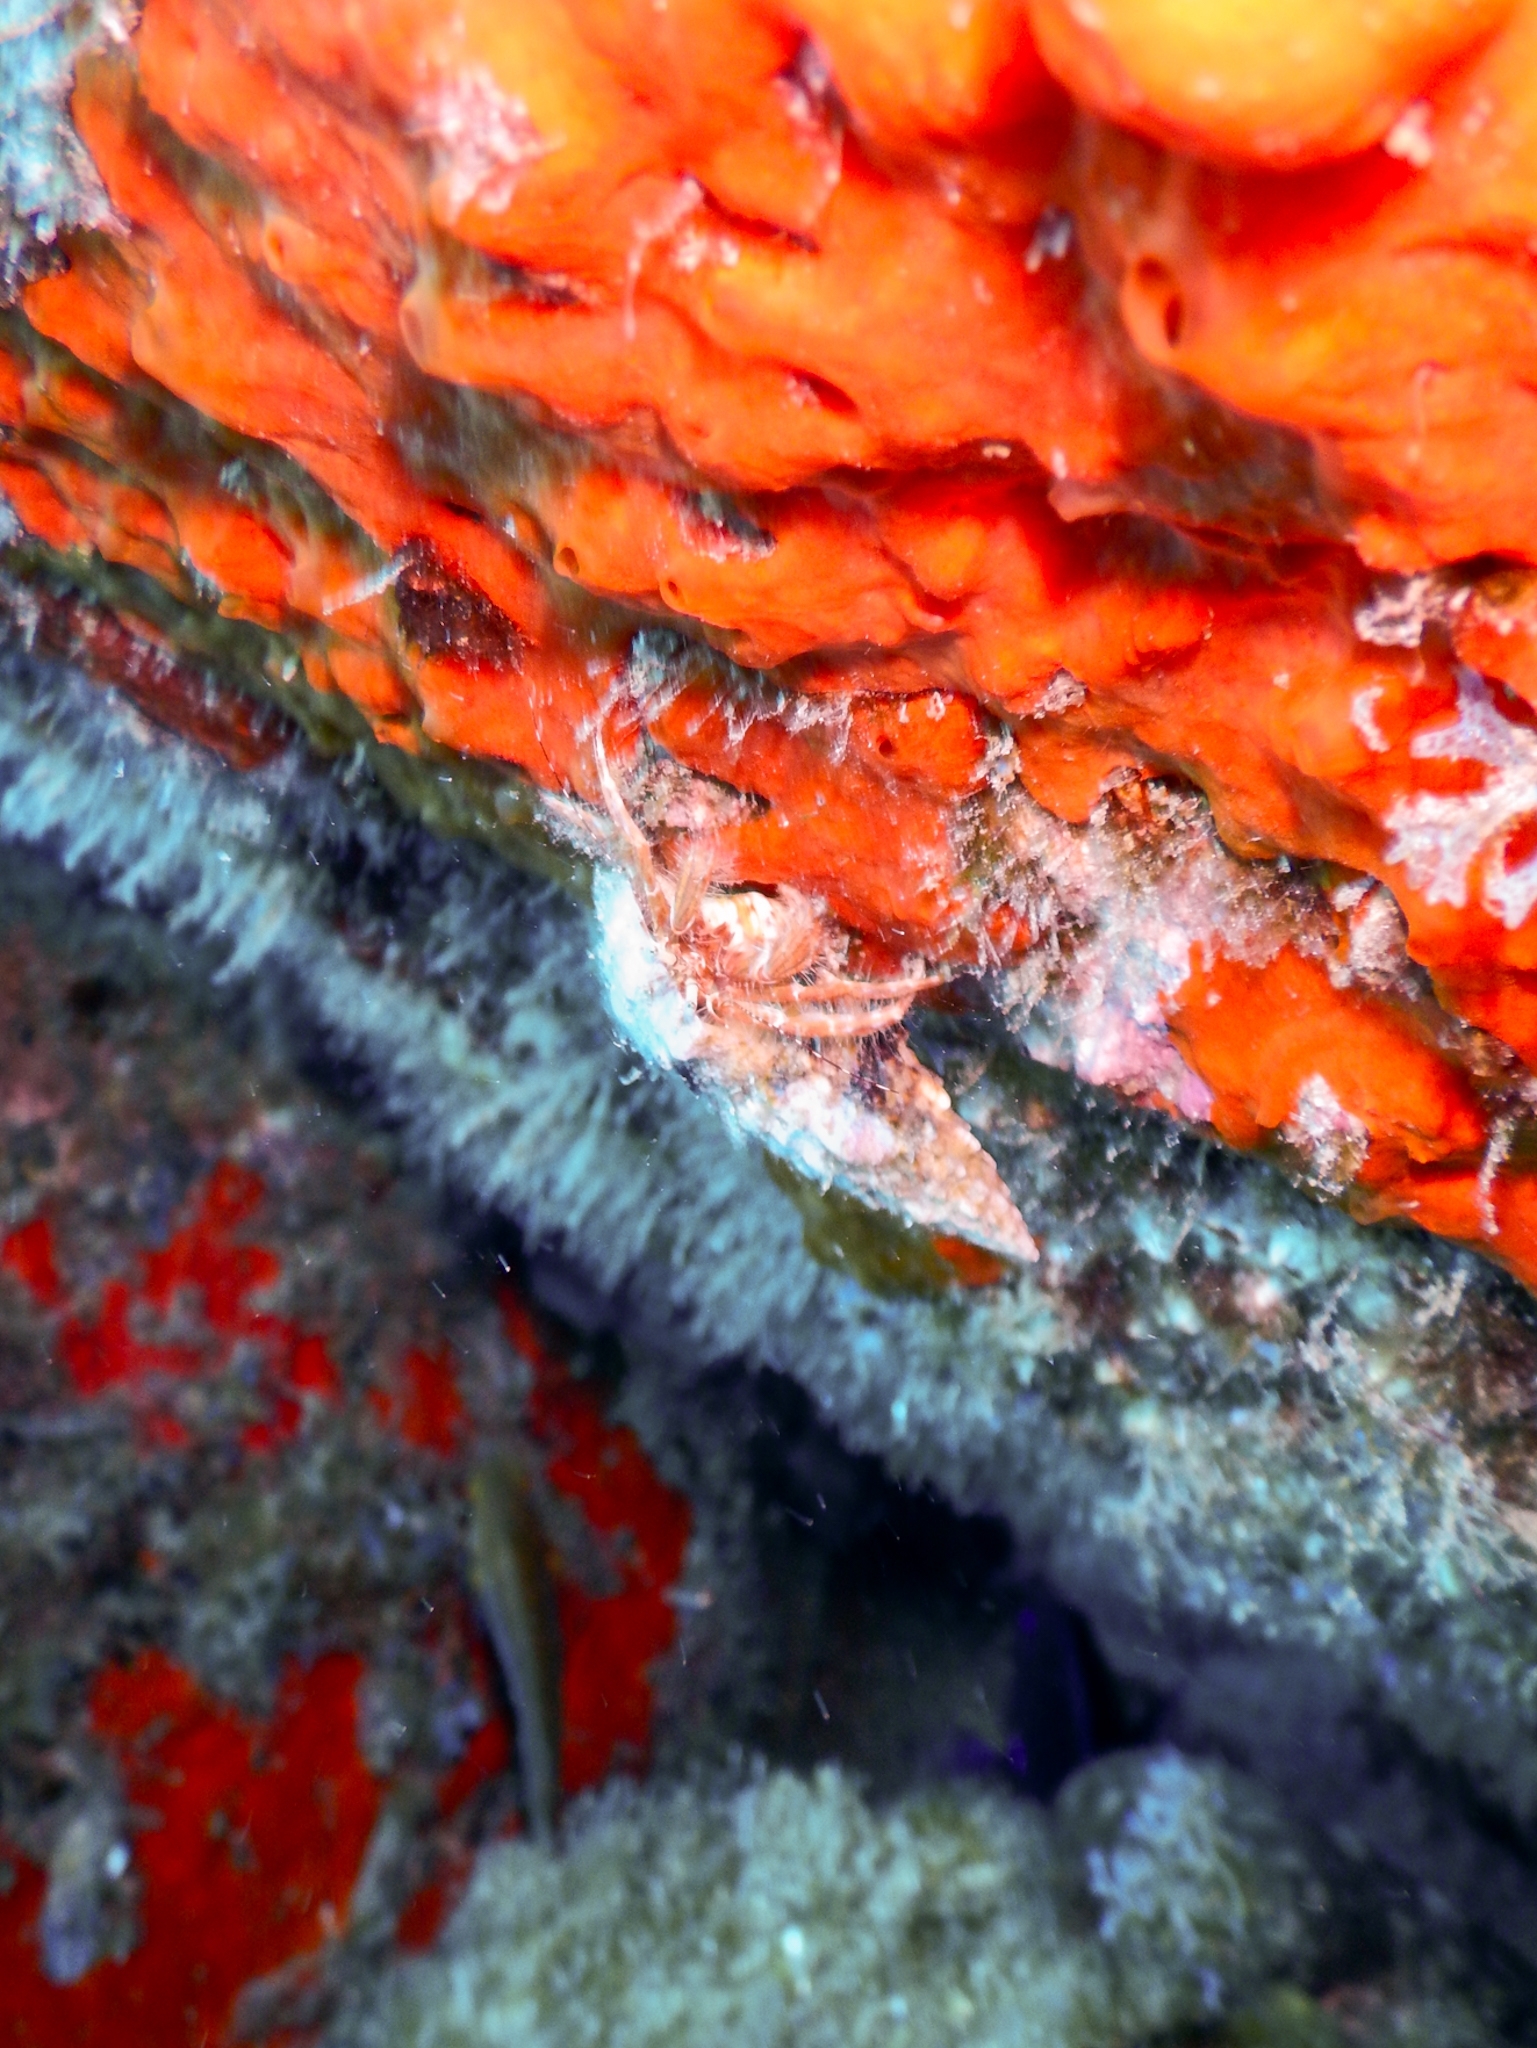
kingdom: Animalia
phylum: Arthropoda
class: Malacostraca
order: Decapoda
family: Paguridae
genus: Pagurus
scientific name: Pagurus anachoretus
